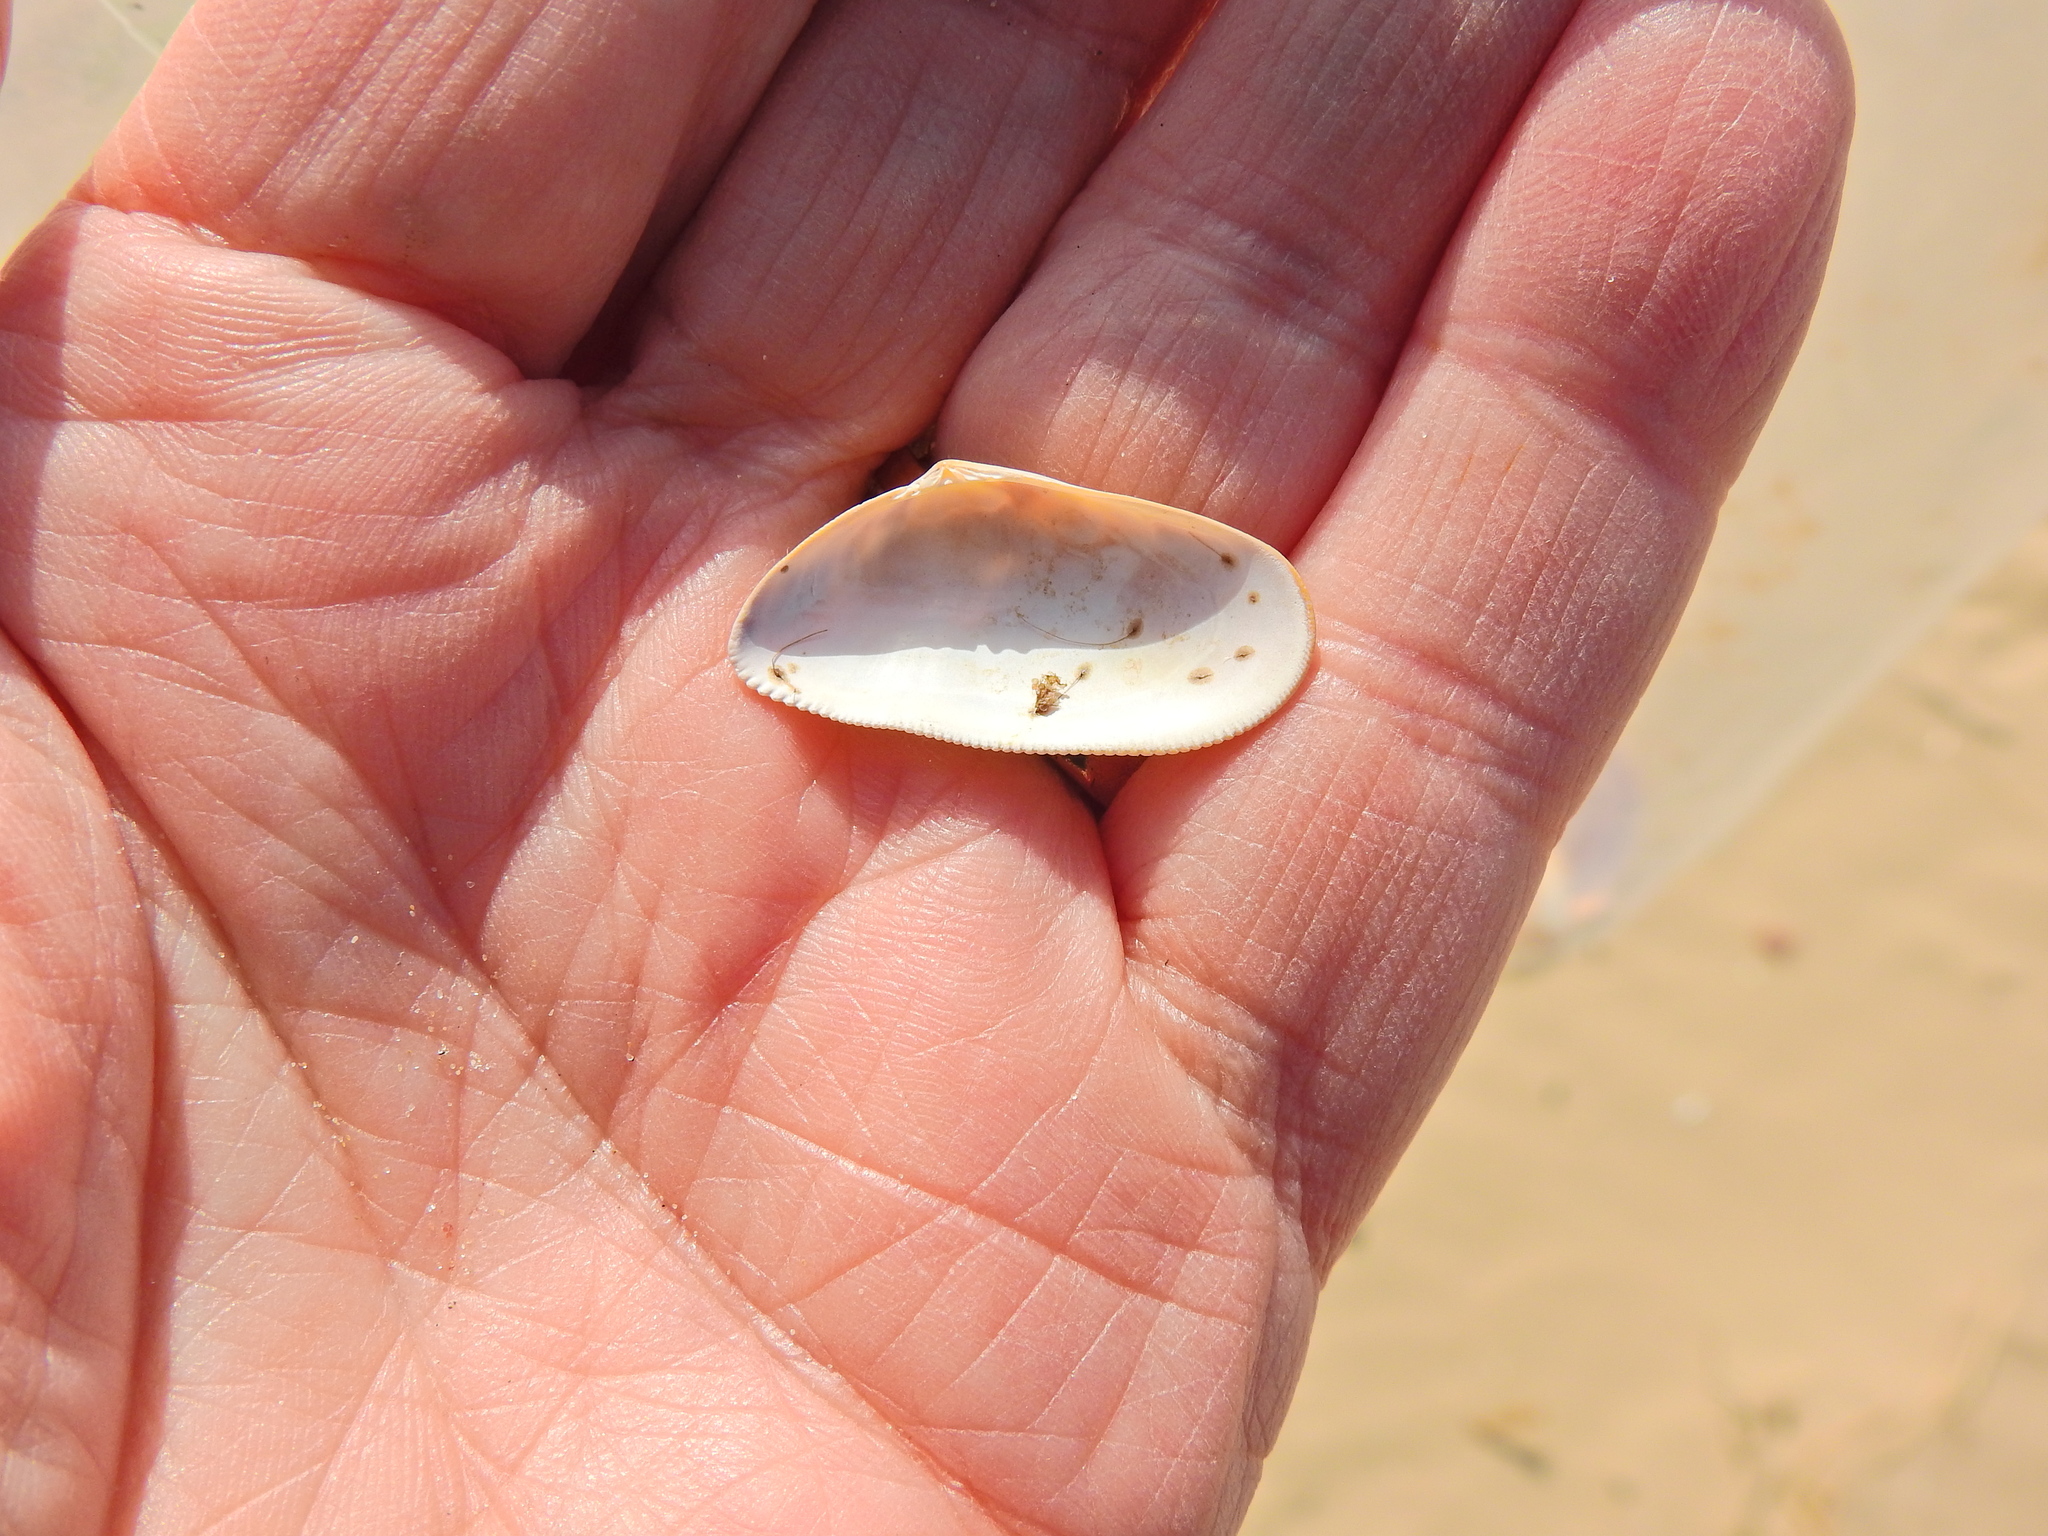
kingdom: Animalia
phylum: Mollusca
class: Bivalvia
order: Cardiida
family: Donacidae
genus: Donax
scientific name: Donax vittatus
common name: Banded wedge-shell
